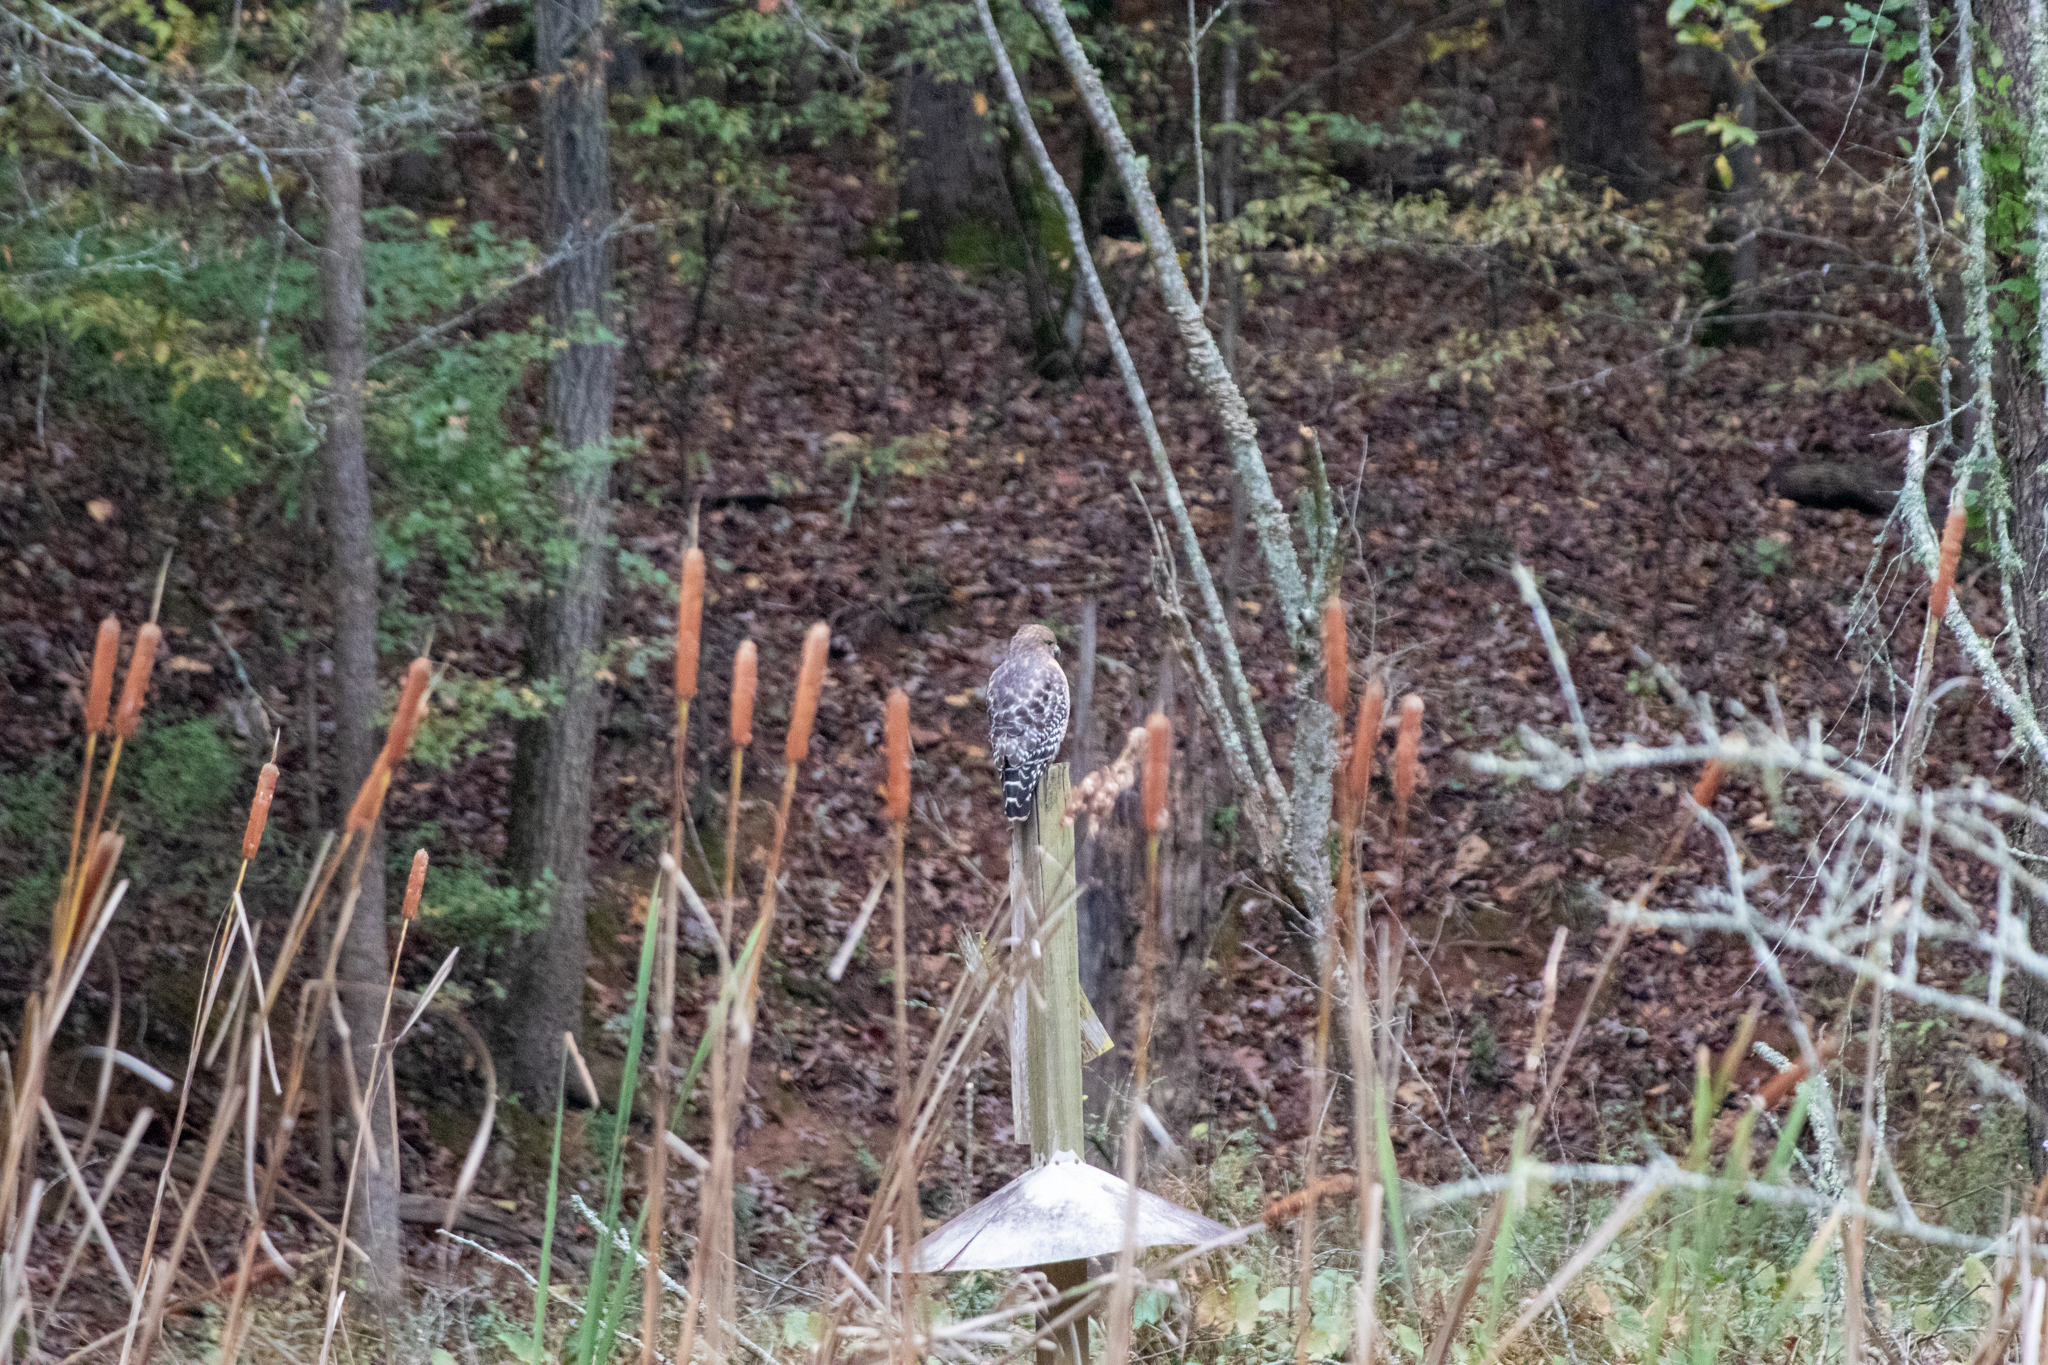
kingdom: Animalia
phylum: Chordata
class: Aves
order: Accipitriformes
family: Accipitridae
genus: Buteo
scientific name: Buteo lineatus
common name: Red-shouldered hawk
